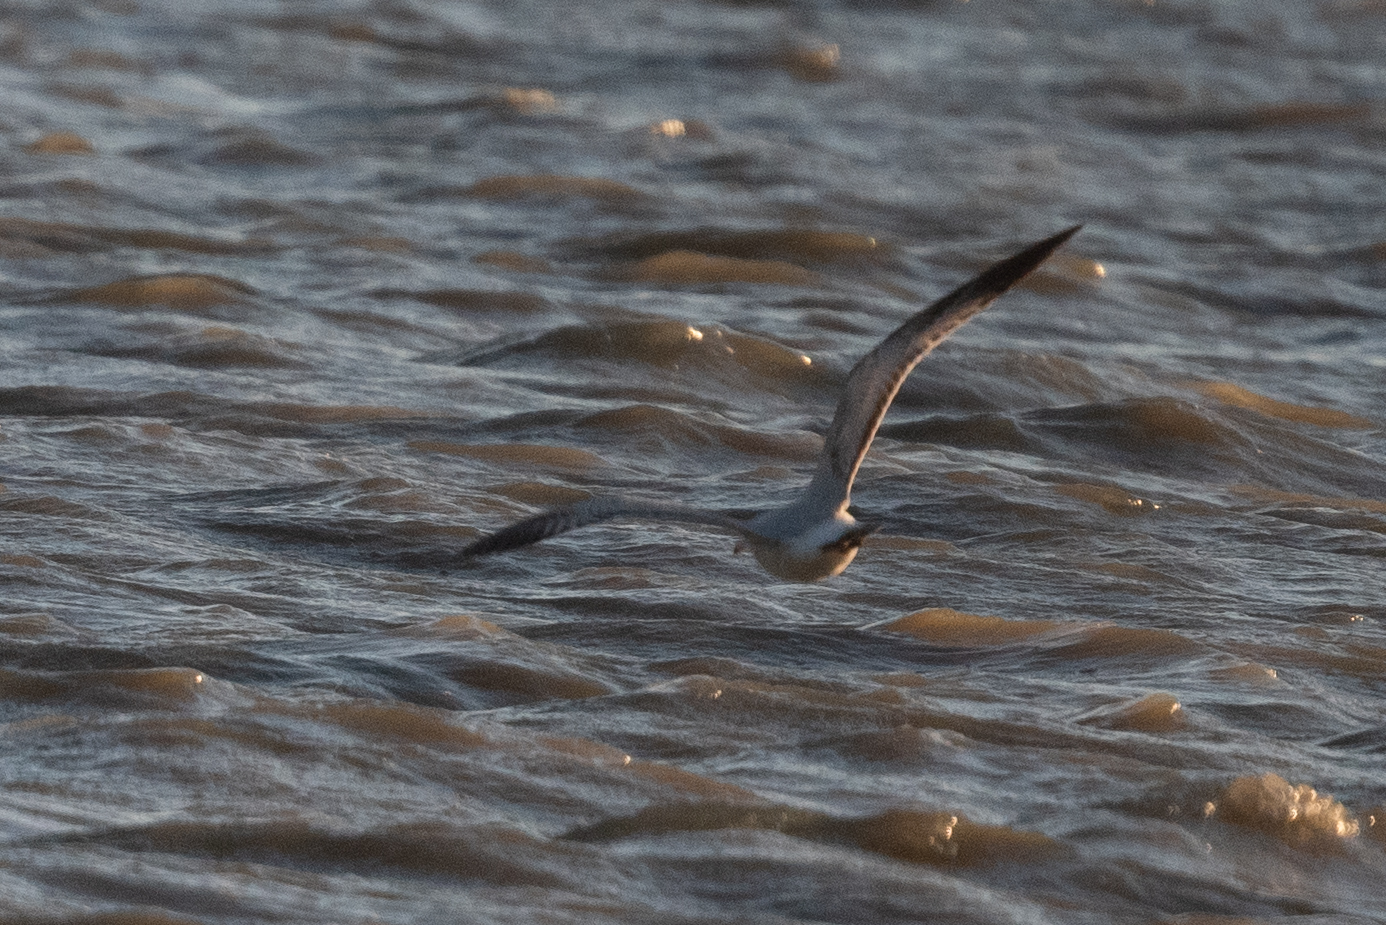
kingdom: Animalia
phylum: Chordata
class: Aves
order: Charadriiformes
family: Laridae
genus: Larus
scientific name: Larus delawarensis
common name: Ring-billed gull
